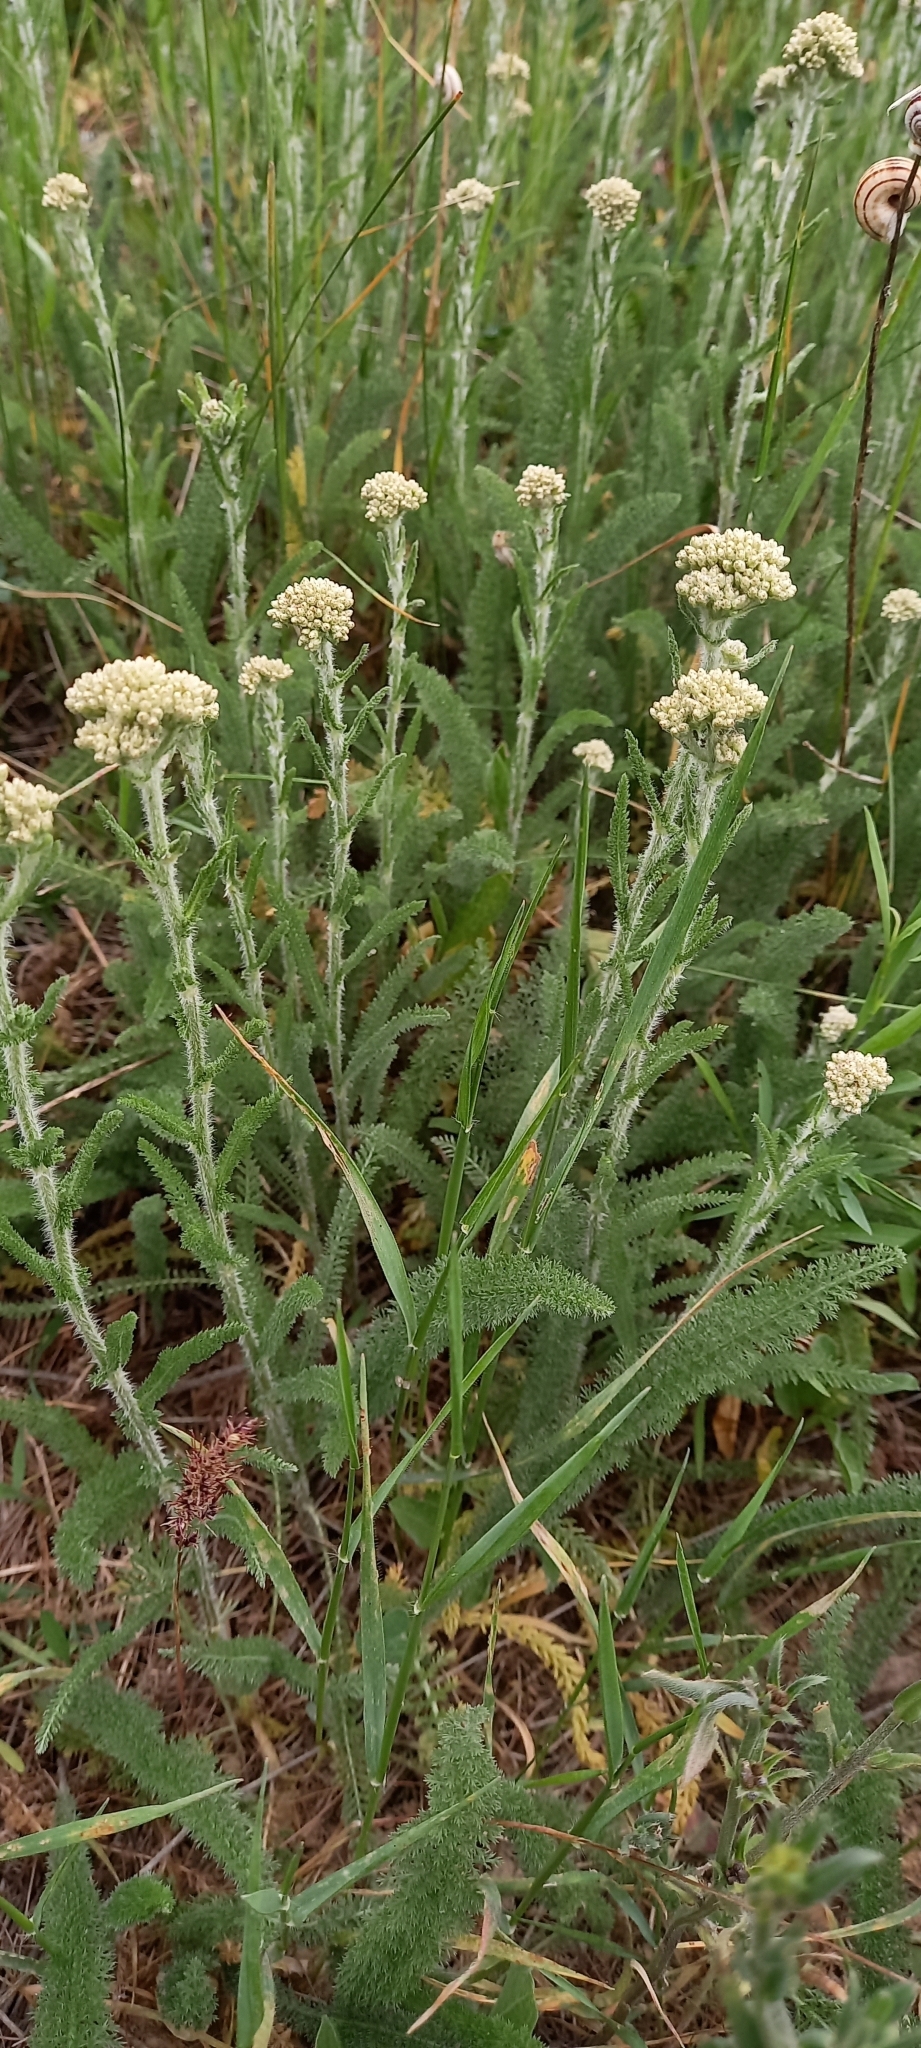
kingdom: Plantae
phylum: Tracheophyta
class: Magnoliopsida
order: Asterales
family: Asteraceae
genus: Achillea
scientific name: Achillea setacea
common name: Bristly yarrow
